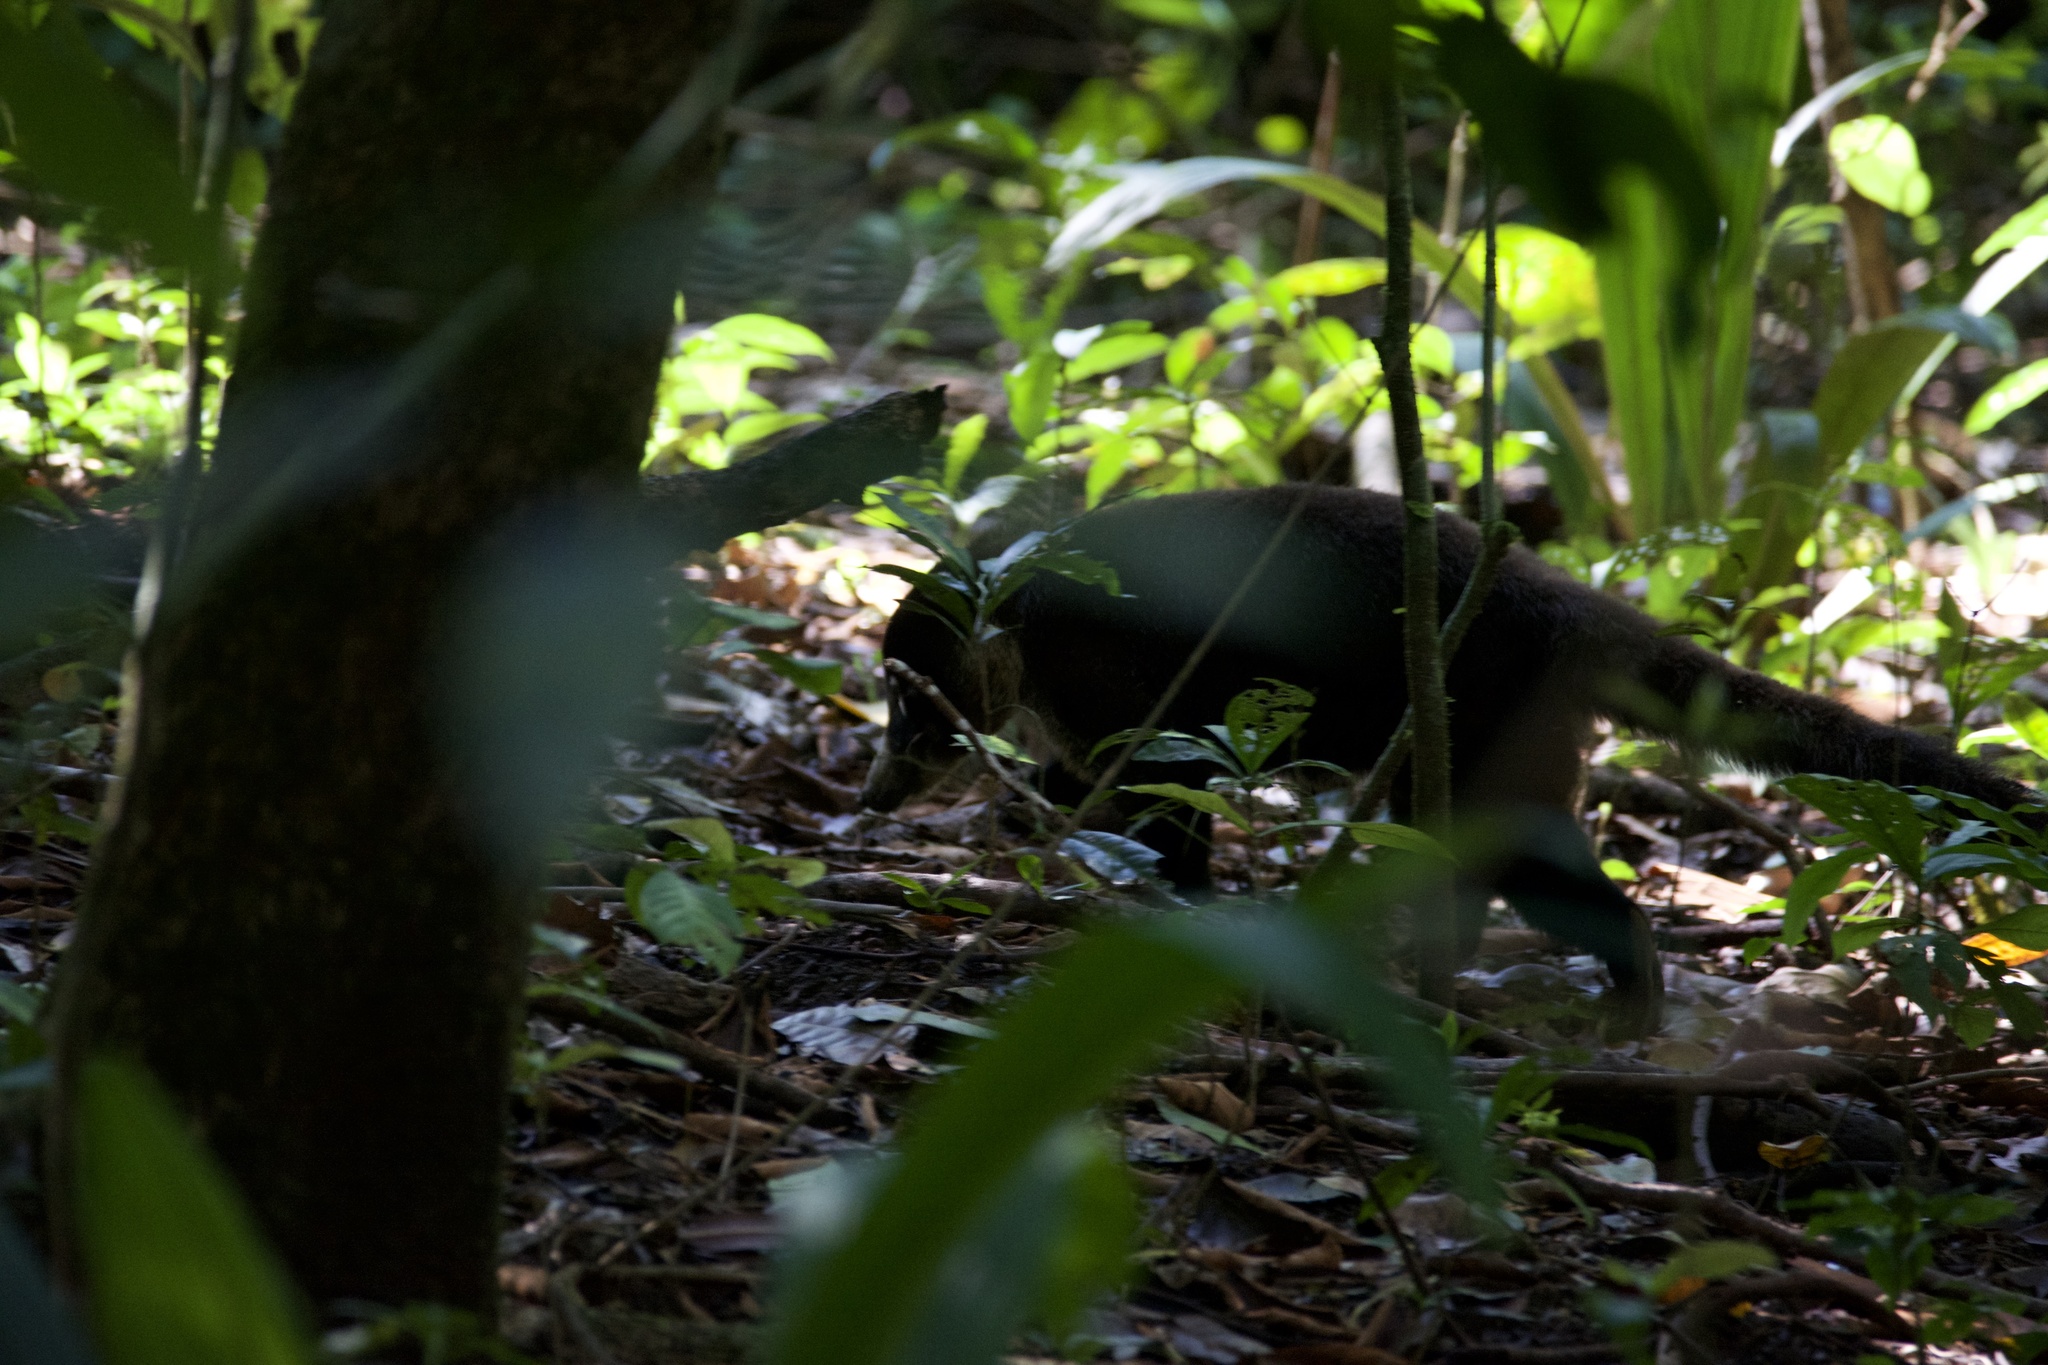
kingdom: Animalia
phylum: Chordata
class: Mammalia
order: Carnivora
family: Procyonidae
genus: Nasua
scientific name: Nasua narica
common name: White-nosed coati
